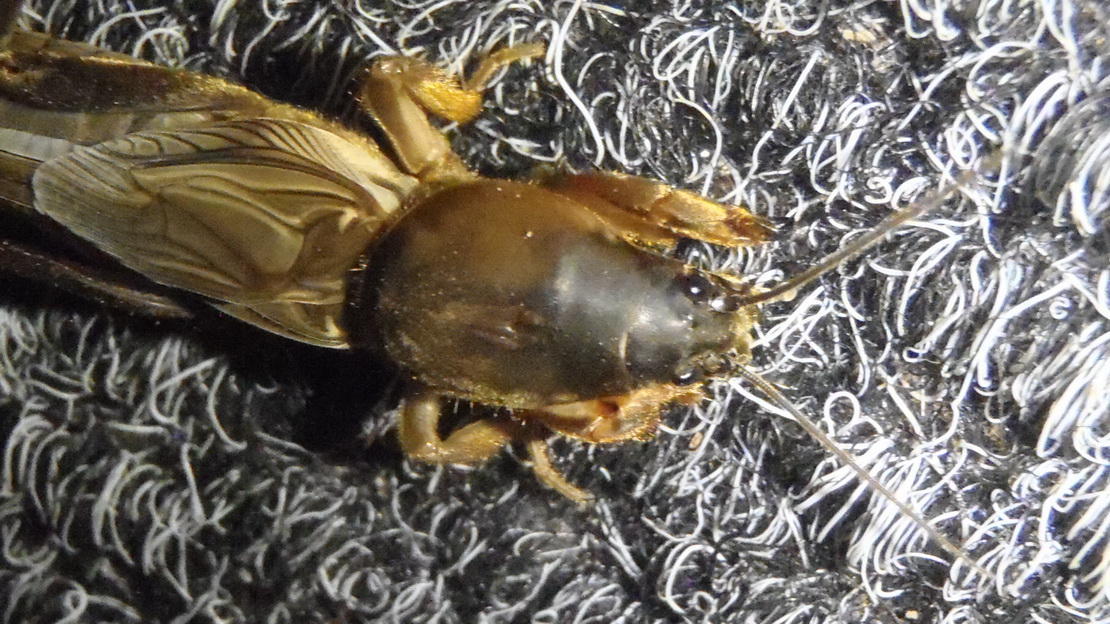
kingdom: Animalia
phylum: Arthropoda
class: Insecta
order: Orthoptera
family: Gryllotalpidae
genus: Gryllotalpa
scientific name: Gryllotalpa africana
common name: African mole cricket
